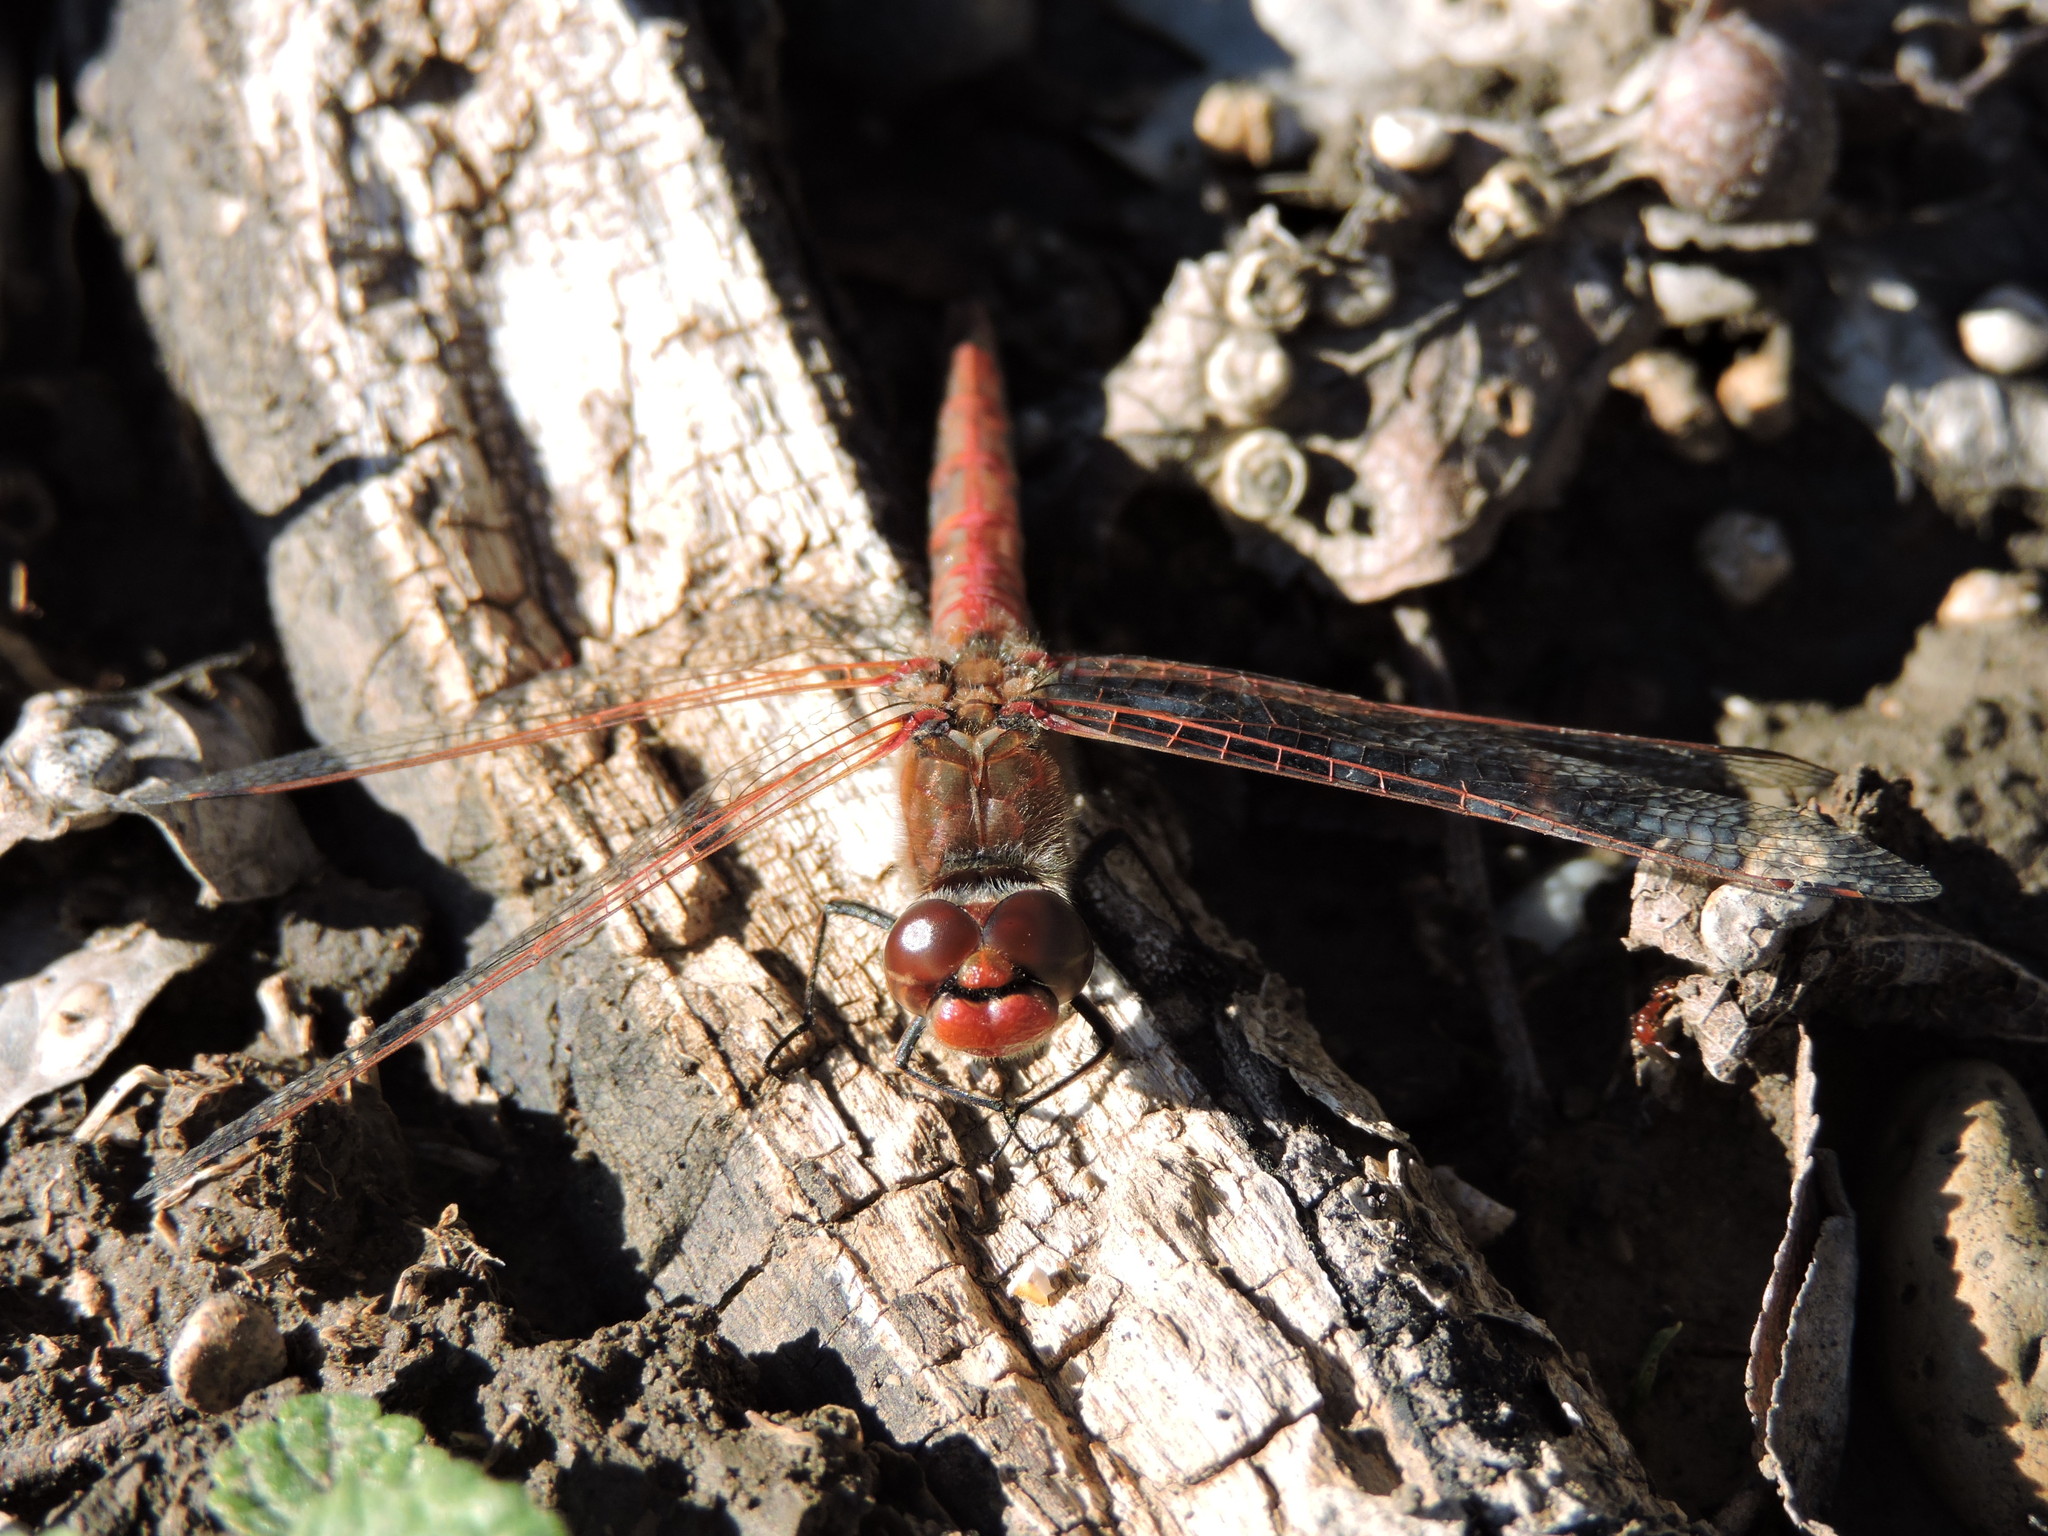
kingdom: Animalia
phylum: Arthropoda
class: Insecta
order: Odonata
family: Libellulidae
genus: Sympetrum
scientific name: Sympetrum corruptum
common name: Variegated meadowhawk
